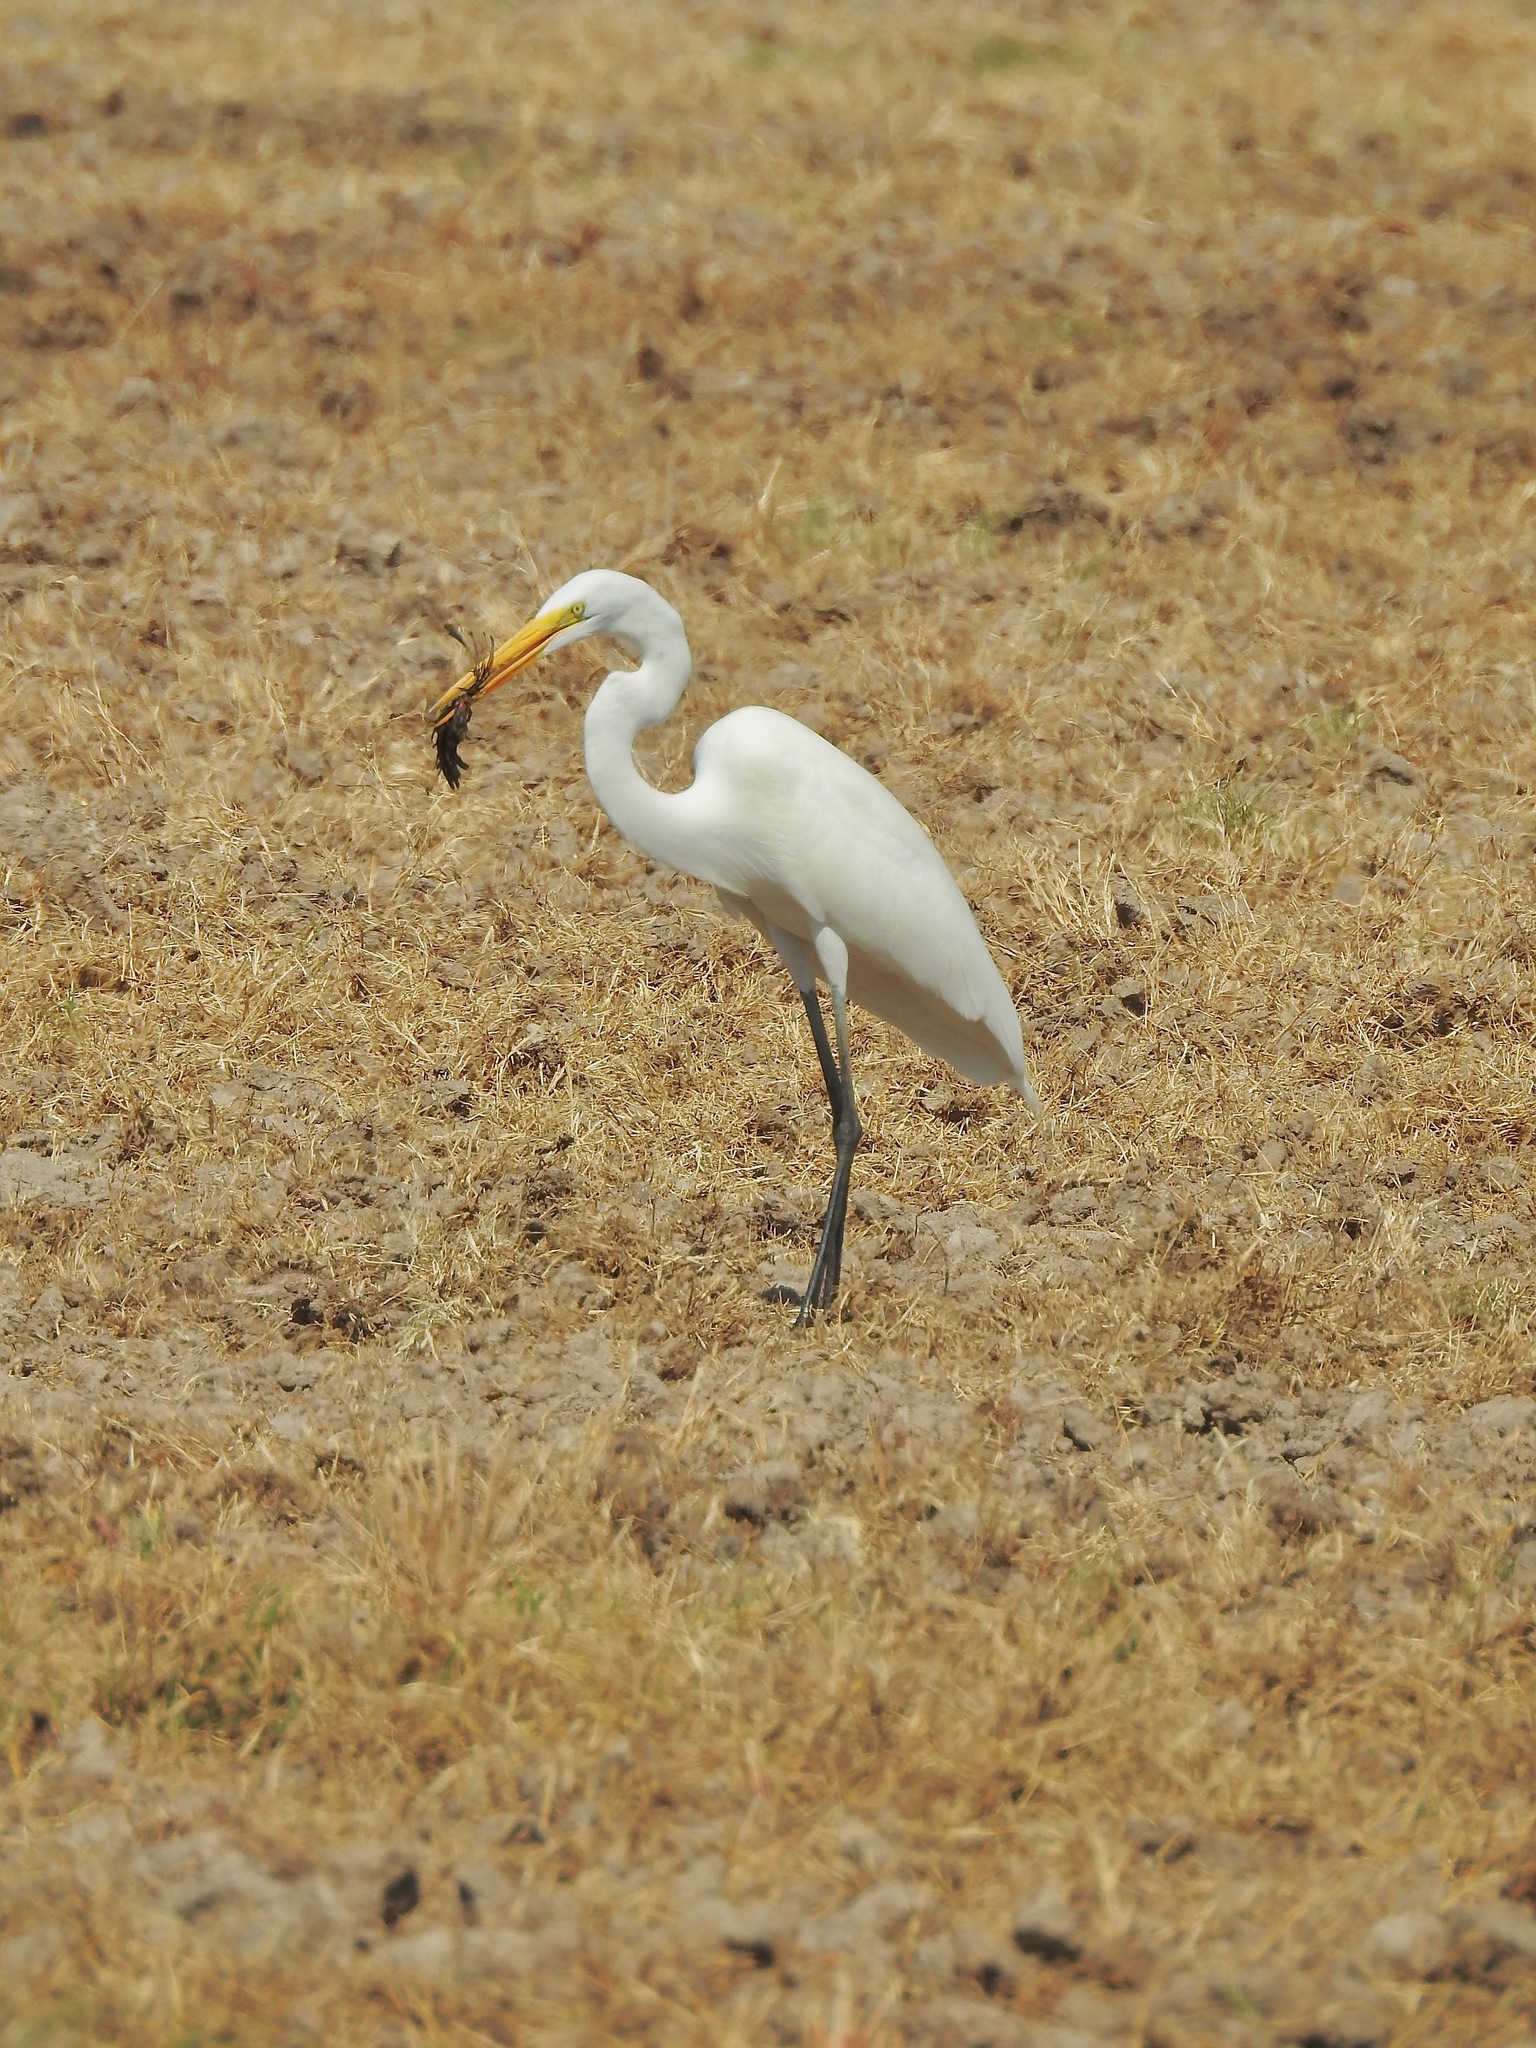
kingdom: Animalia
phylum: Chordata
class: Aves
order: Pelecaniformes
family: Ardeidae
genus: Ardea
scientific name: Ardea alba
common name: Great egret
